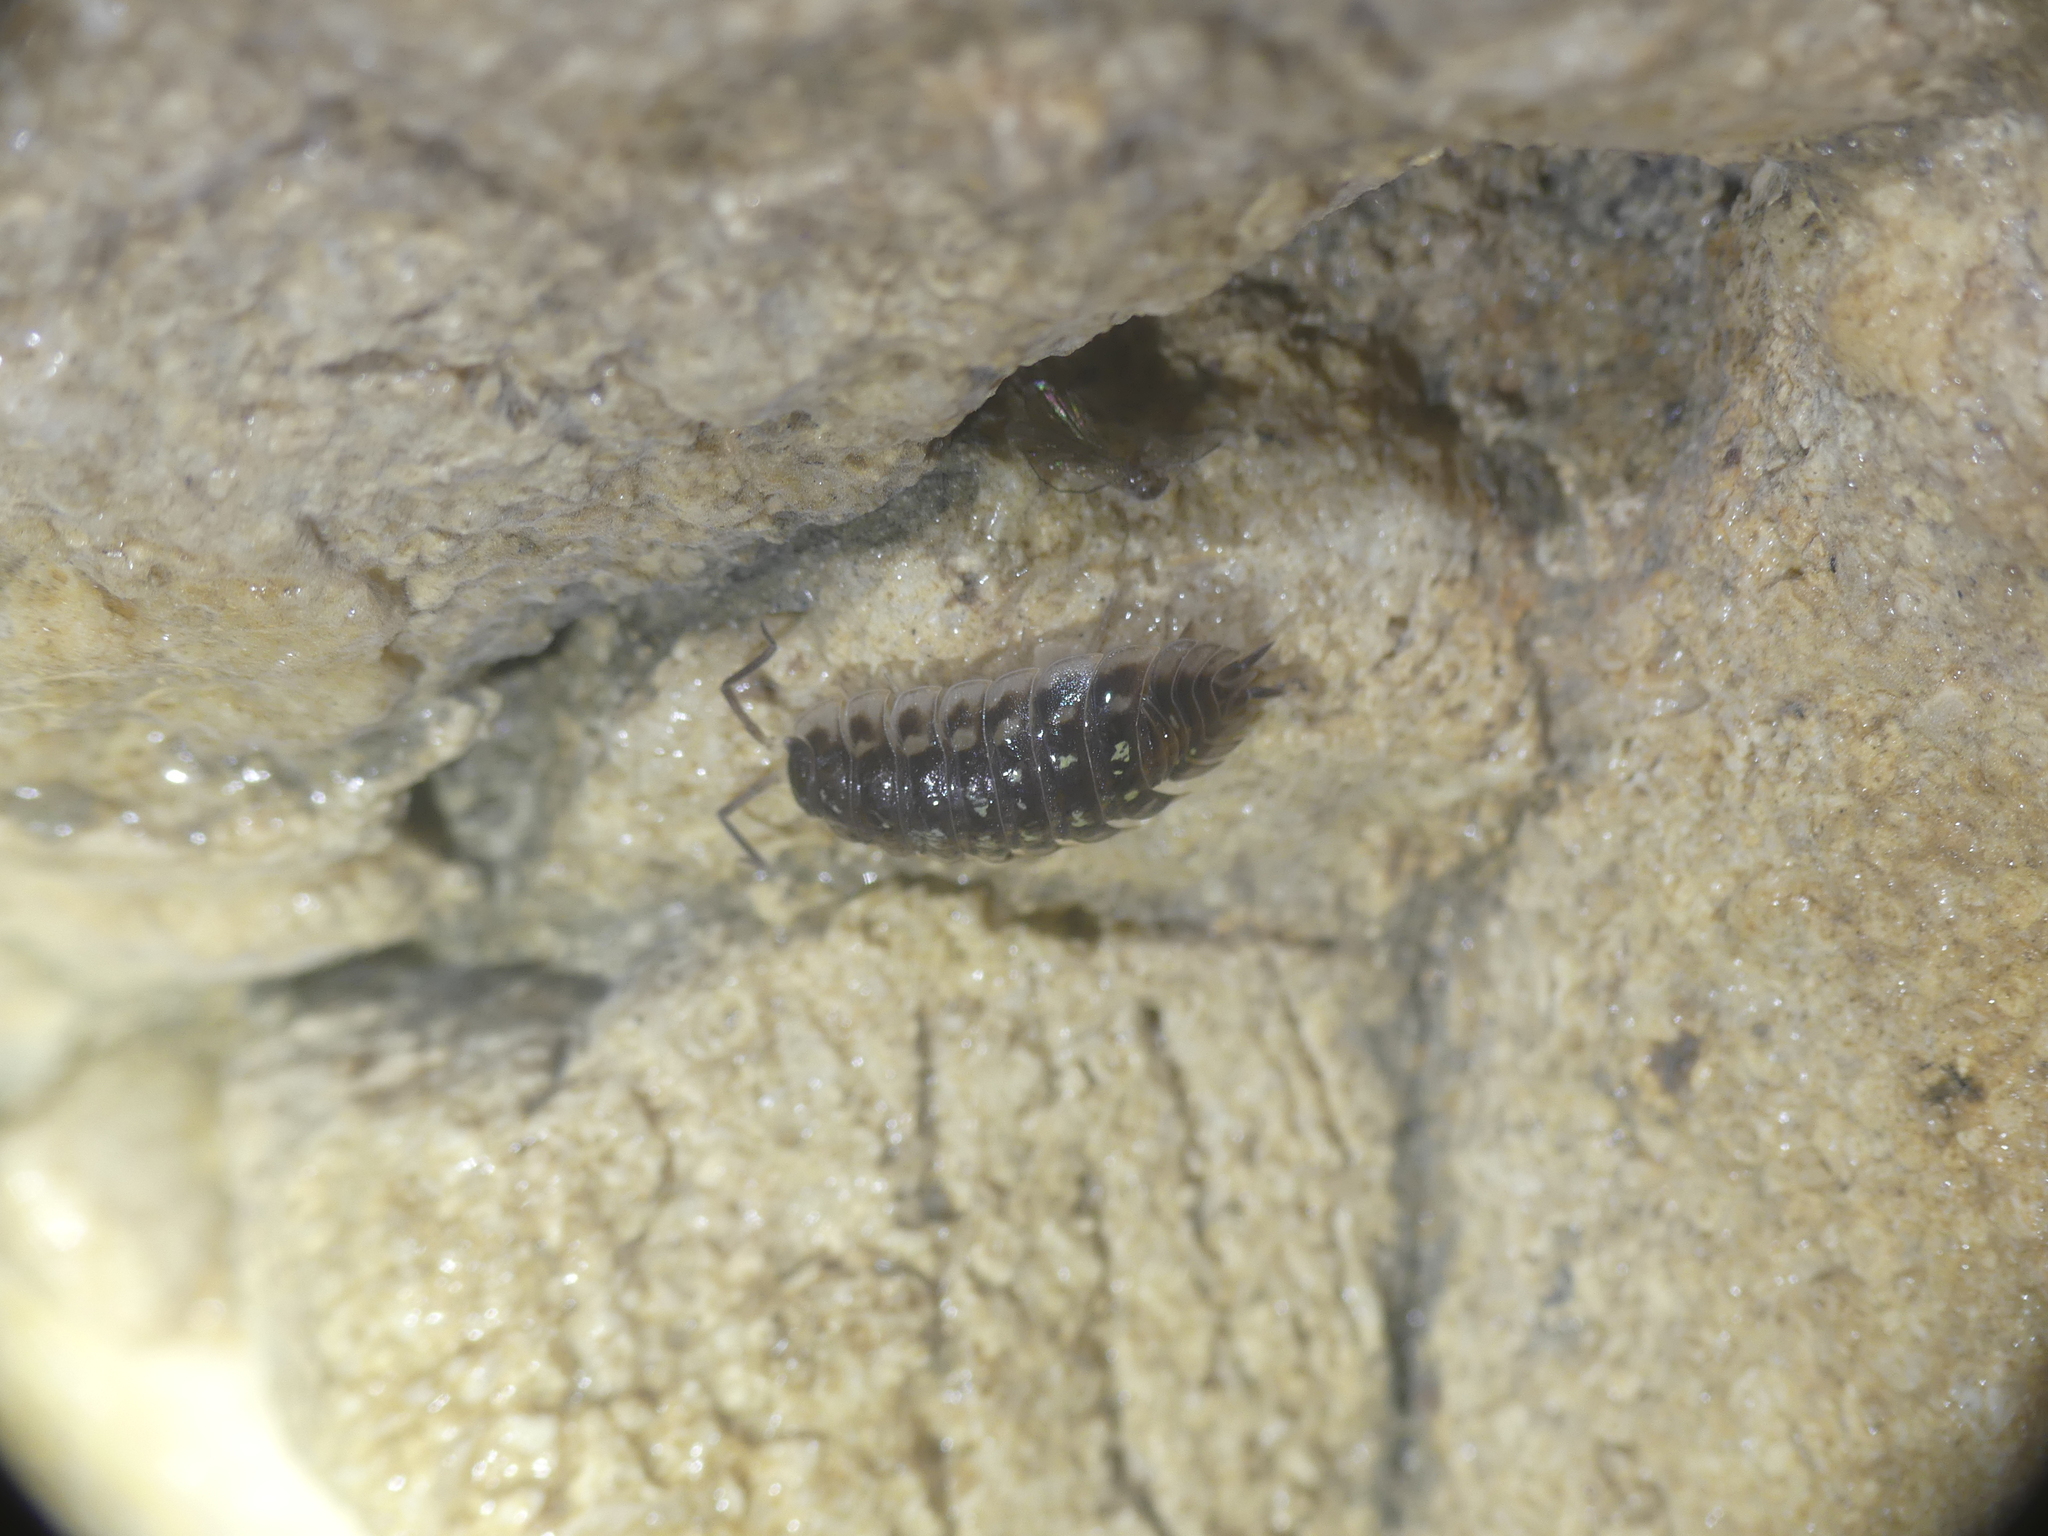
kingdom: Animalia
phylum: Arthropoda
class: Malacostraca
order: Isopoda
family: Oniscidae
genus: Oniscus
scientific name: Oniscus asellus
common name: Common shiny woodlouse
